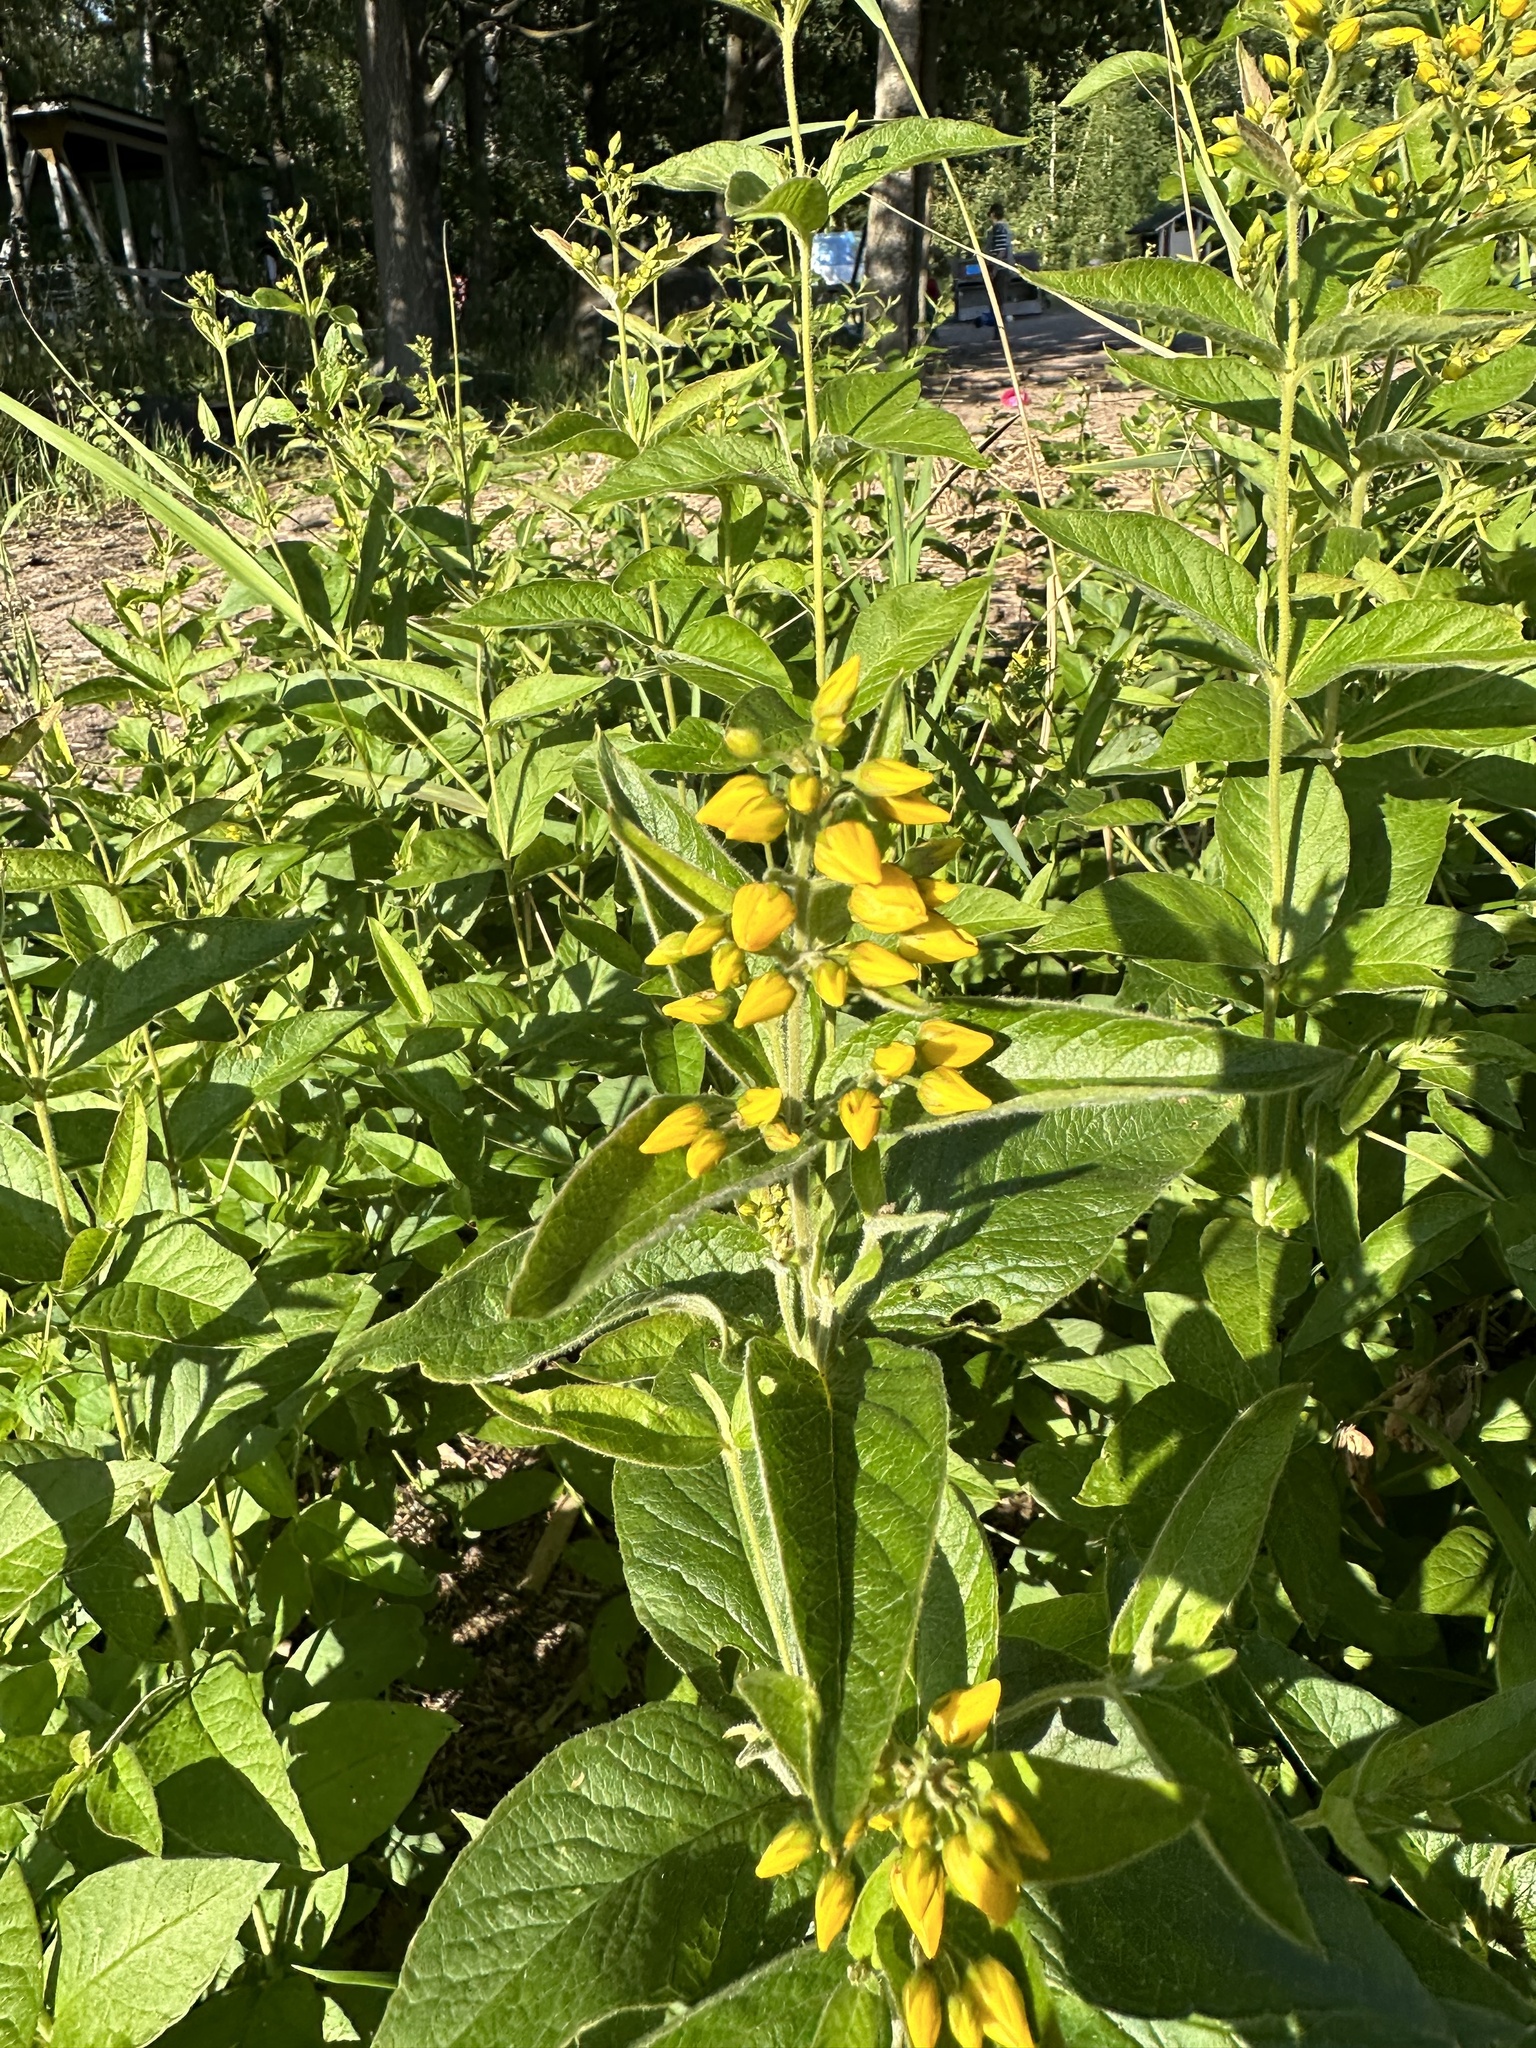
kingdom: Plantae
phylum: Tracheophyta
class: Magnoliopsida
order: Ericales
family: Primulaceae
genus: Lysimachia
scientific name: Lysimachia vulgaris
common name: Yellow loosestrife
